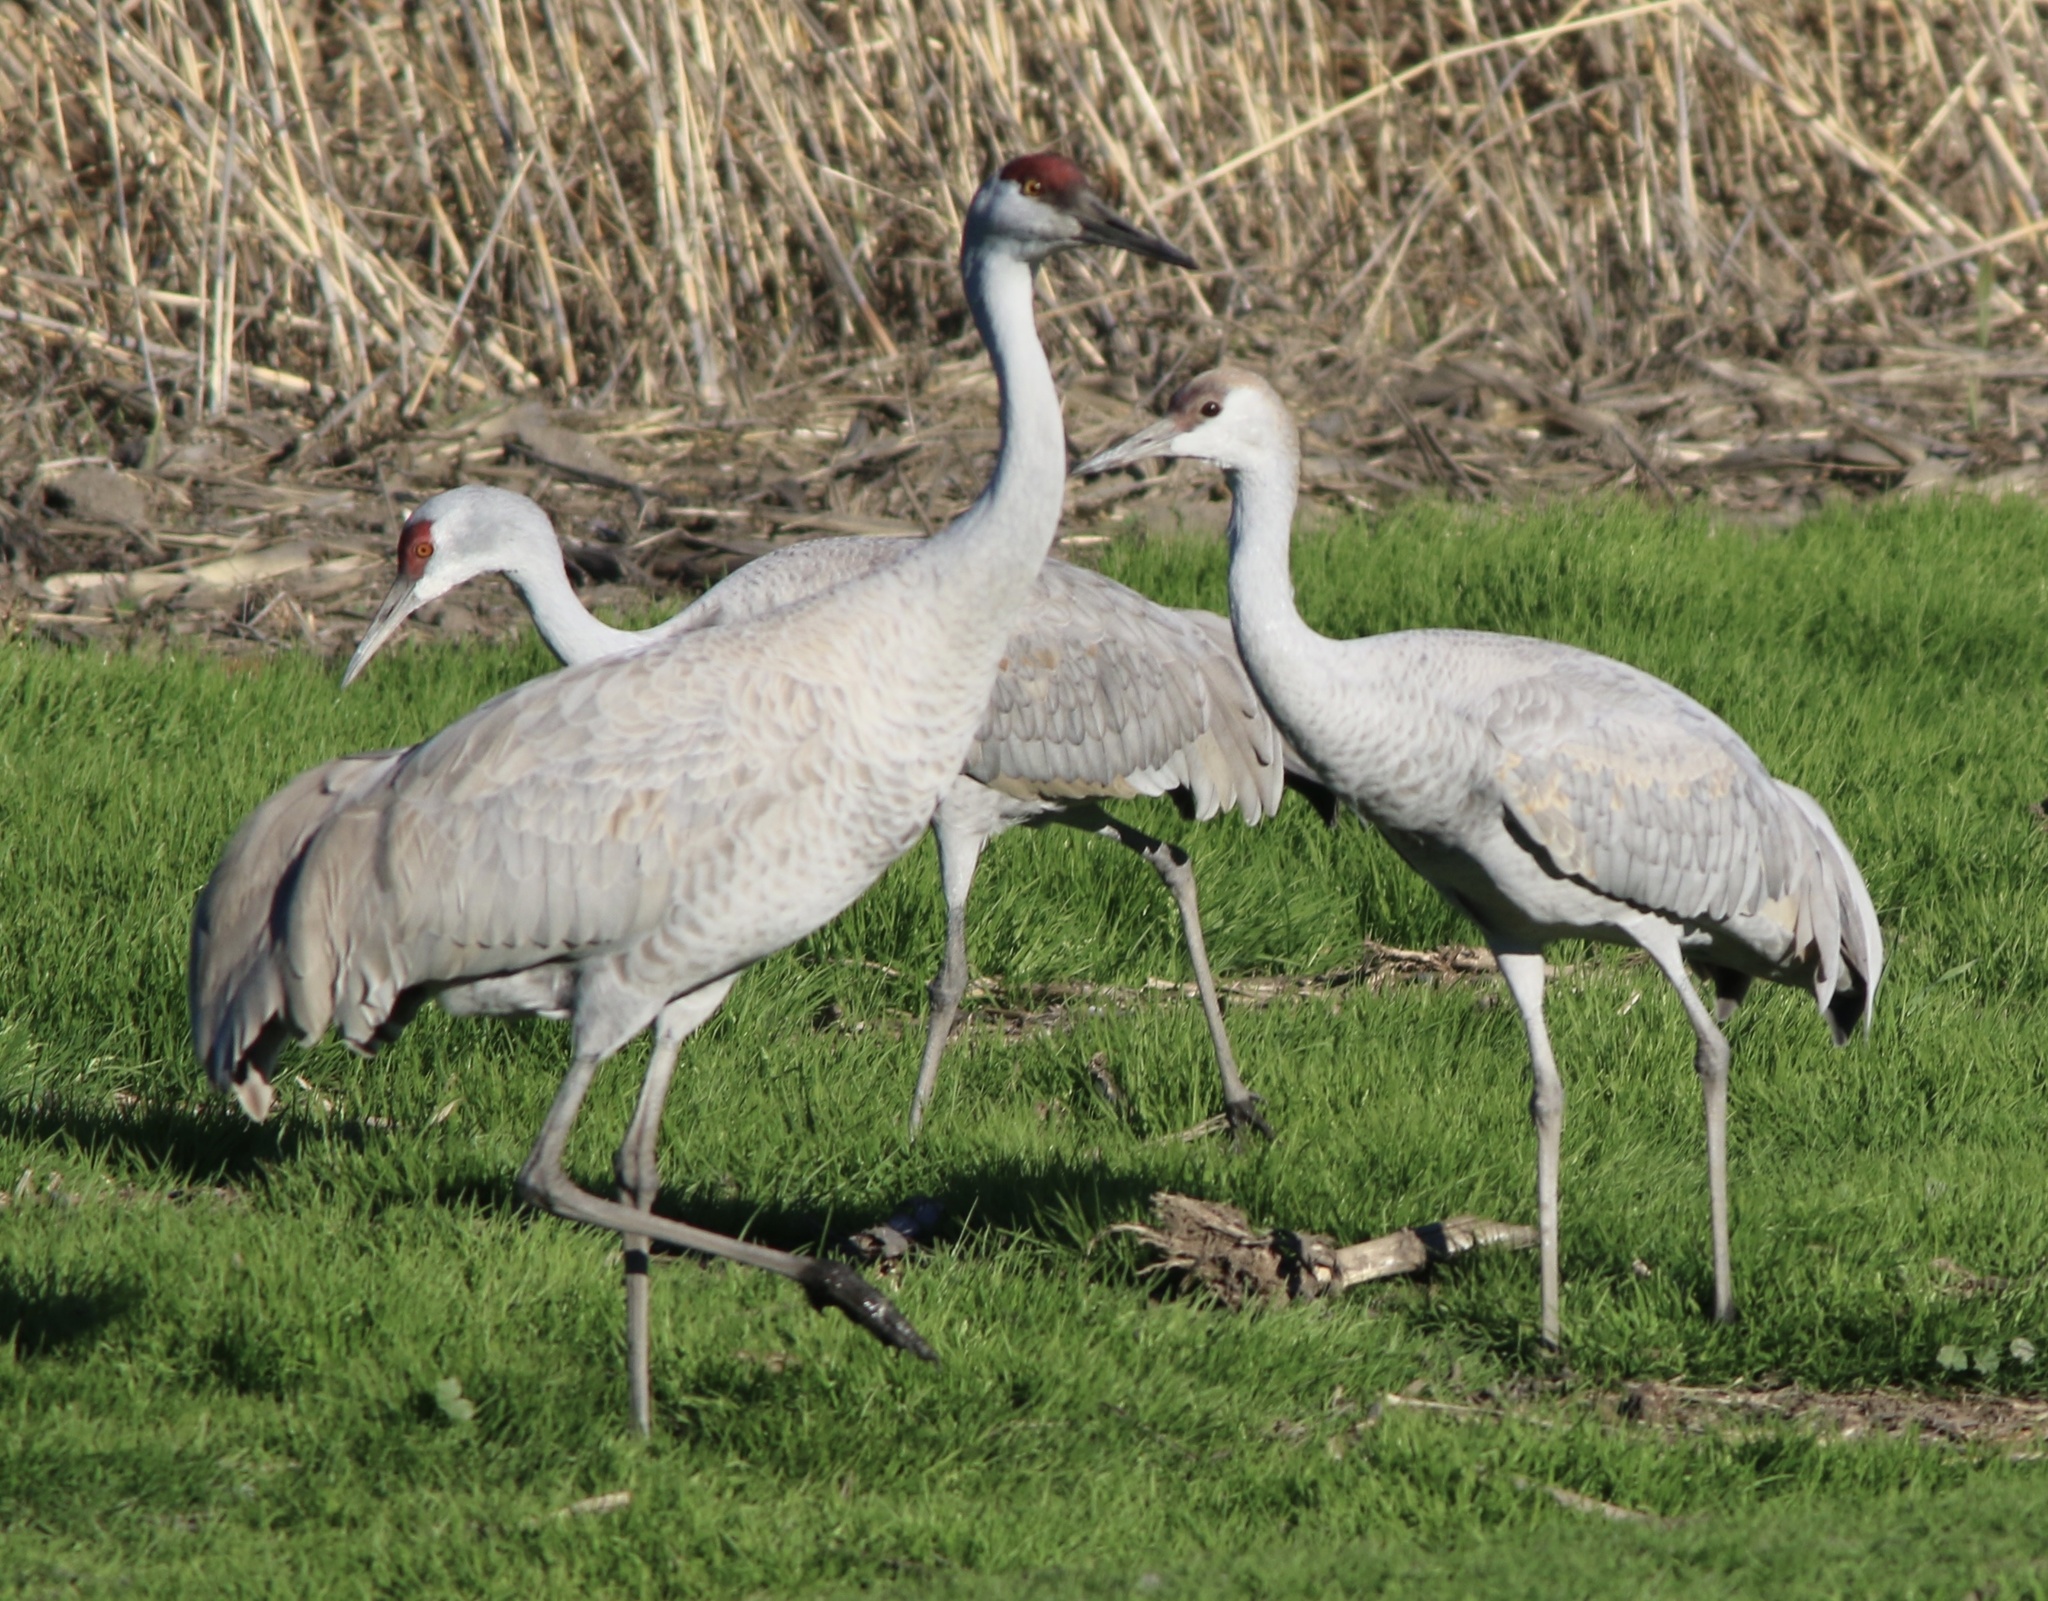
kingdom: Animalia
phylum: Chordata
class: Aves
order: Gruiformes
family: Gruidae
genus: Grus
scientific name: Grus canadensis
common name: Sandhill crane
